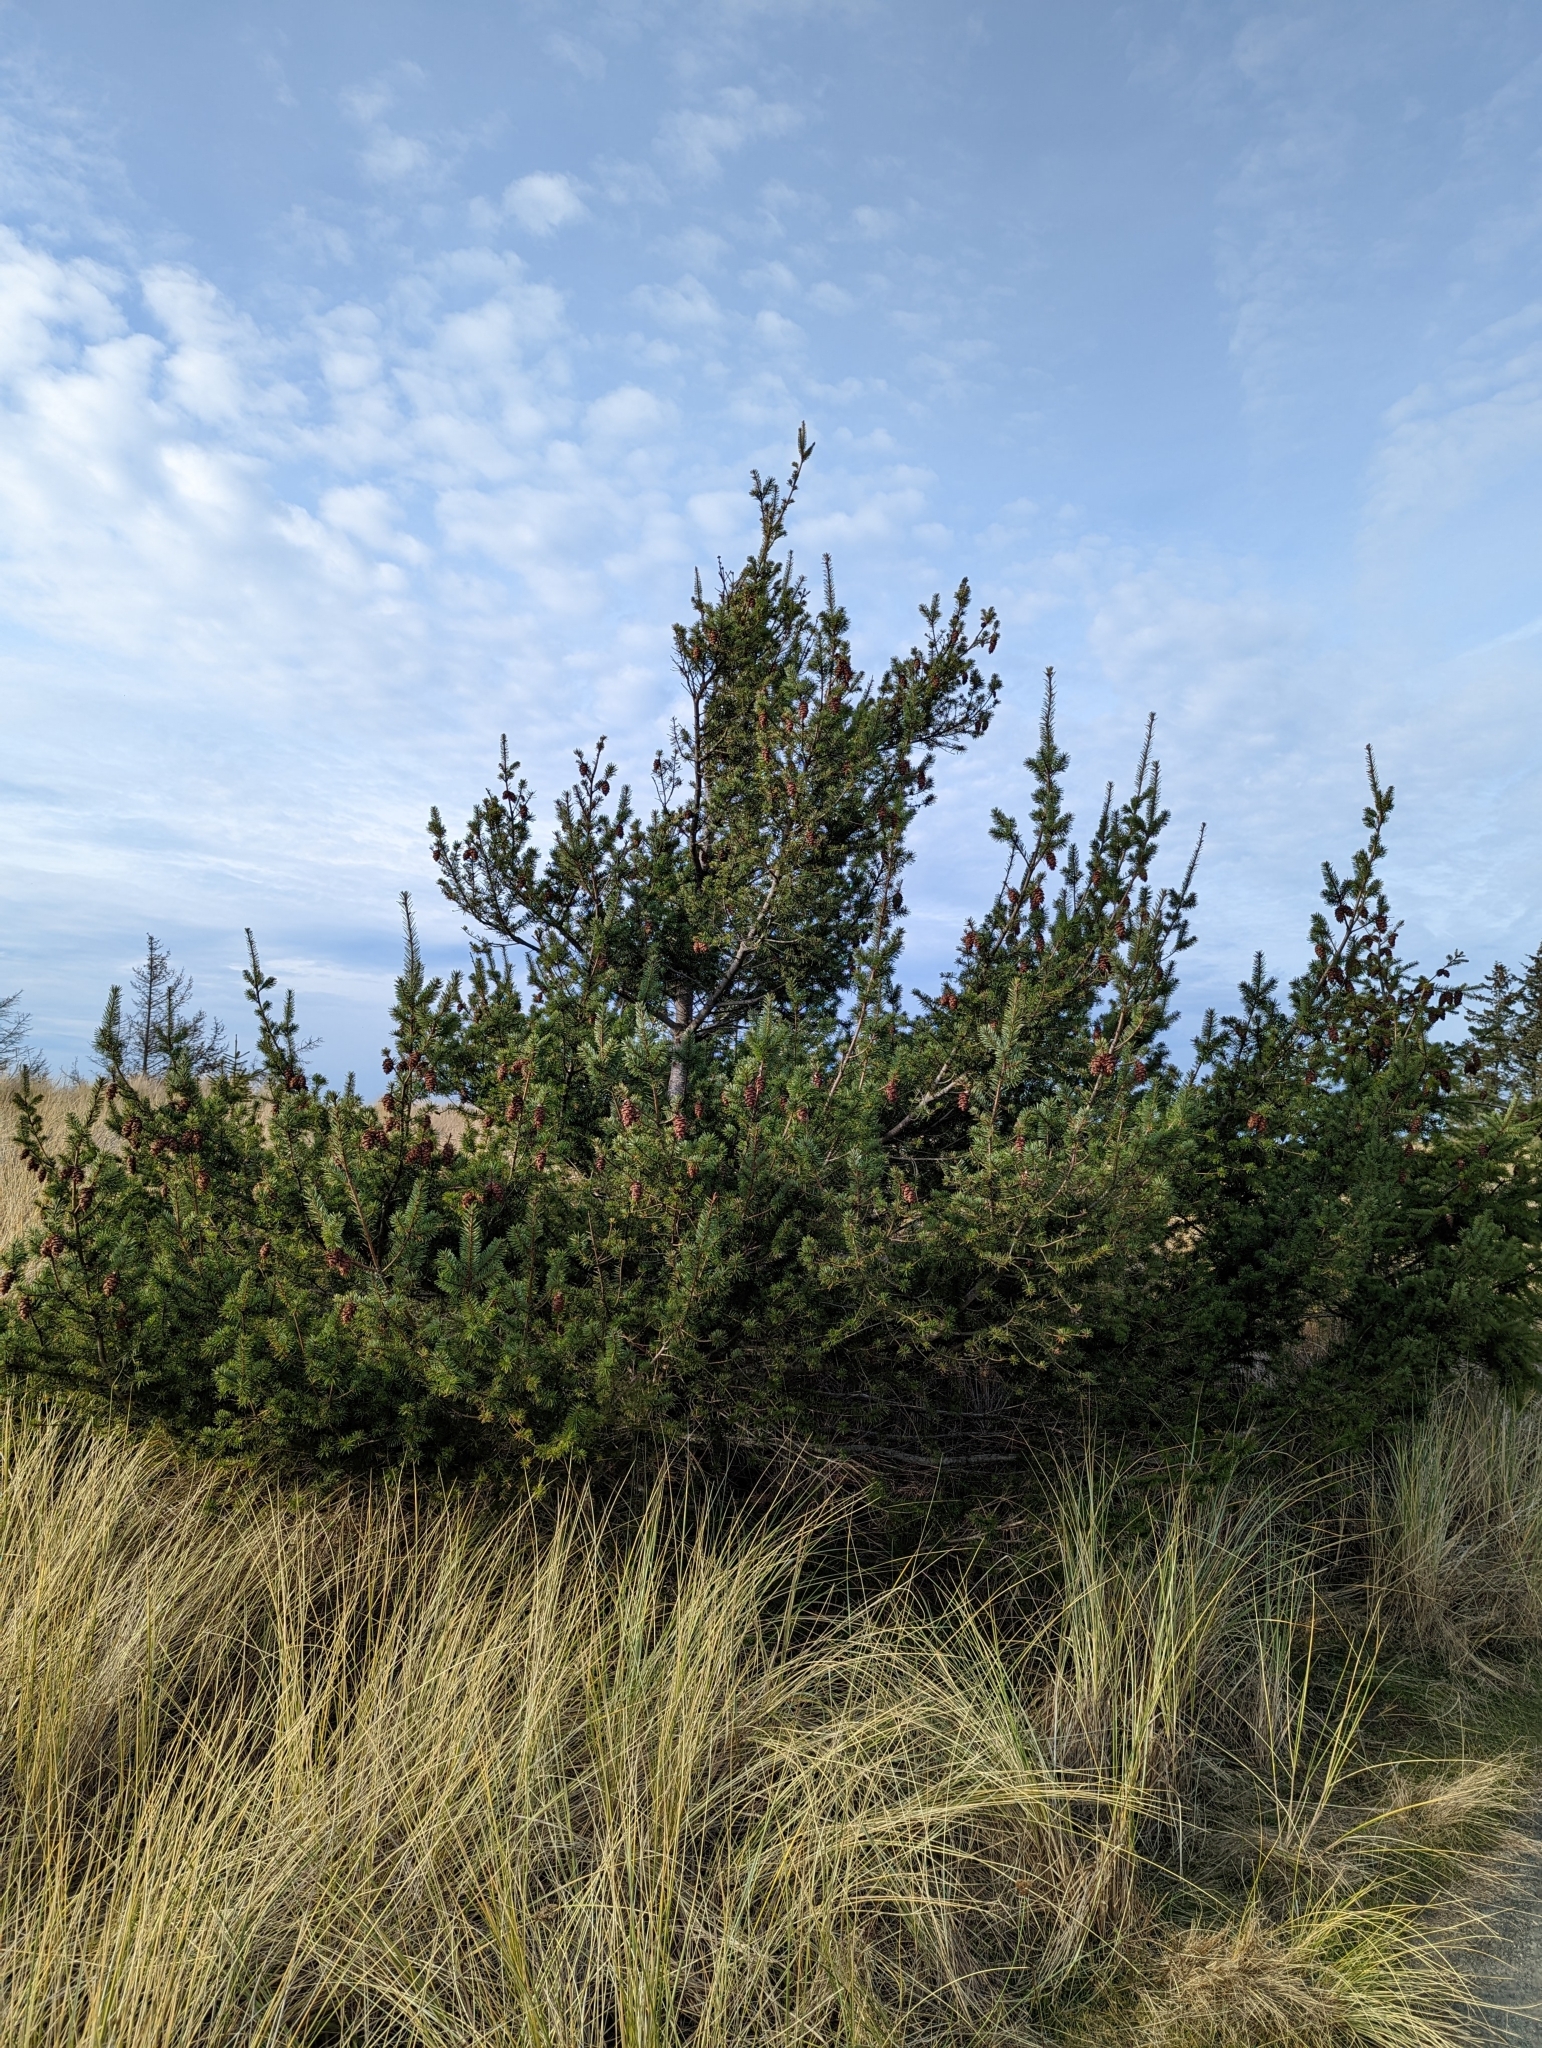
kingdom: Plantae
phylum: Tracheophyta
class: Pinopsida
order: Pinales
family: Pinaceae
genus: Pseudotsuga
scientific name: Pseudotsuga menziesii
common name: Douglas fir
